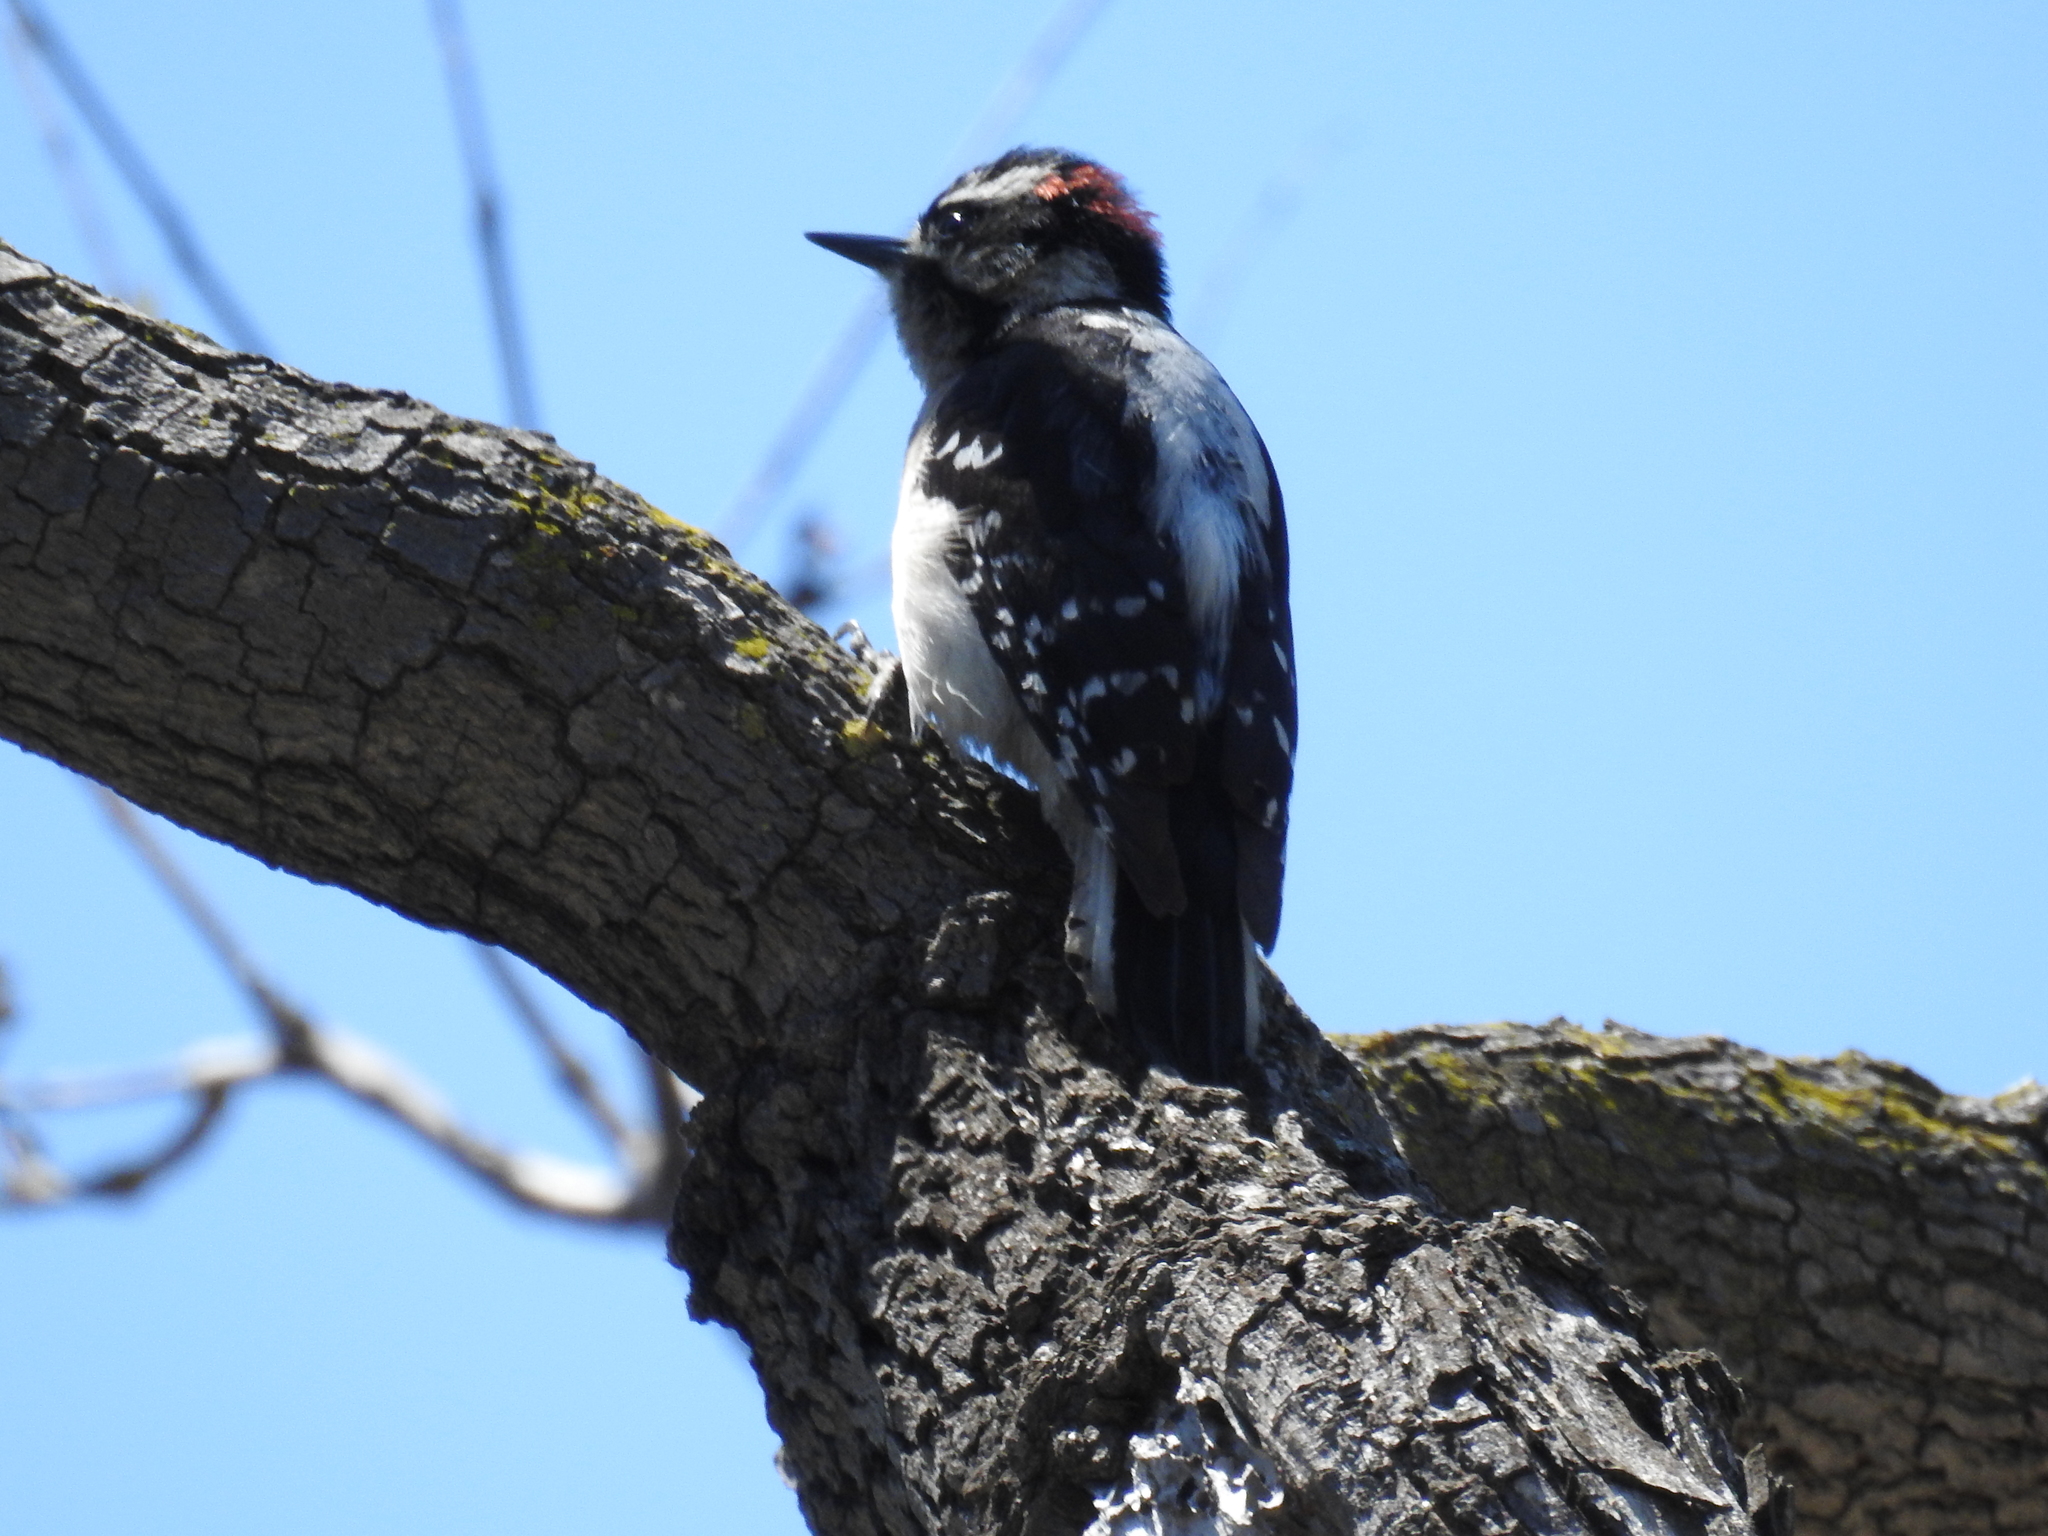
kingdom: Animalia
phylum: Chordata
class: Aves
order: Piciformes
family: Picidae
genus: Dryobates
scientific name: Dryobates pubescens
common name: Downy woodpecker
